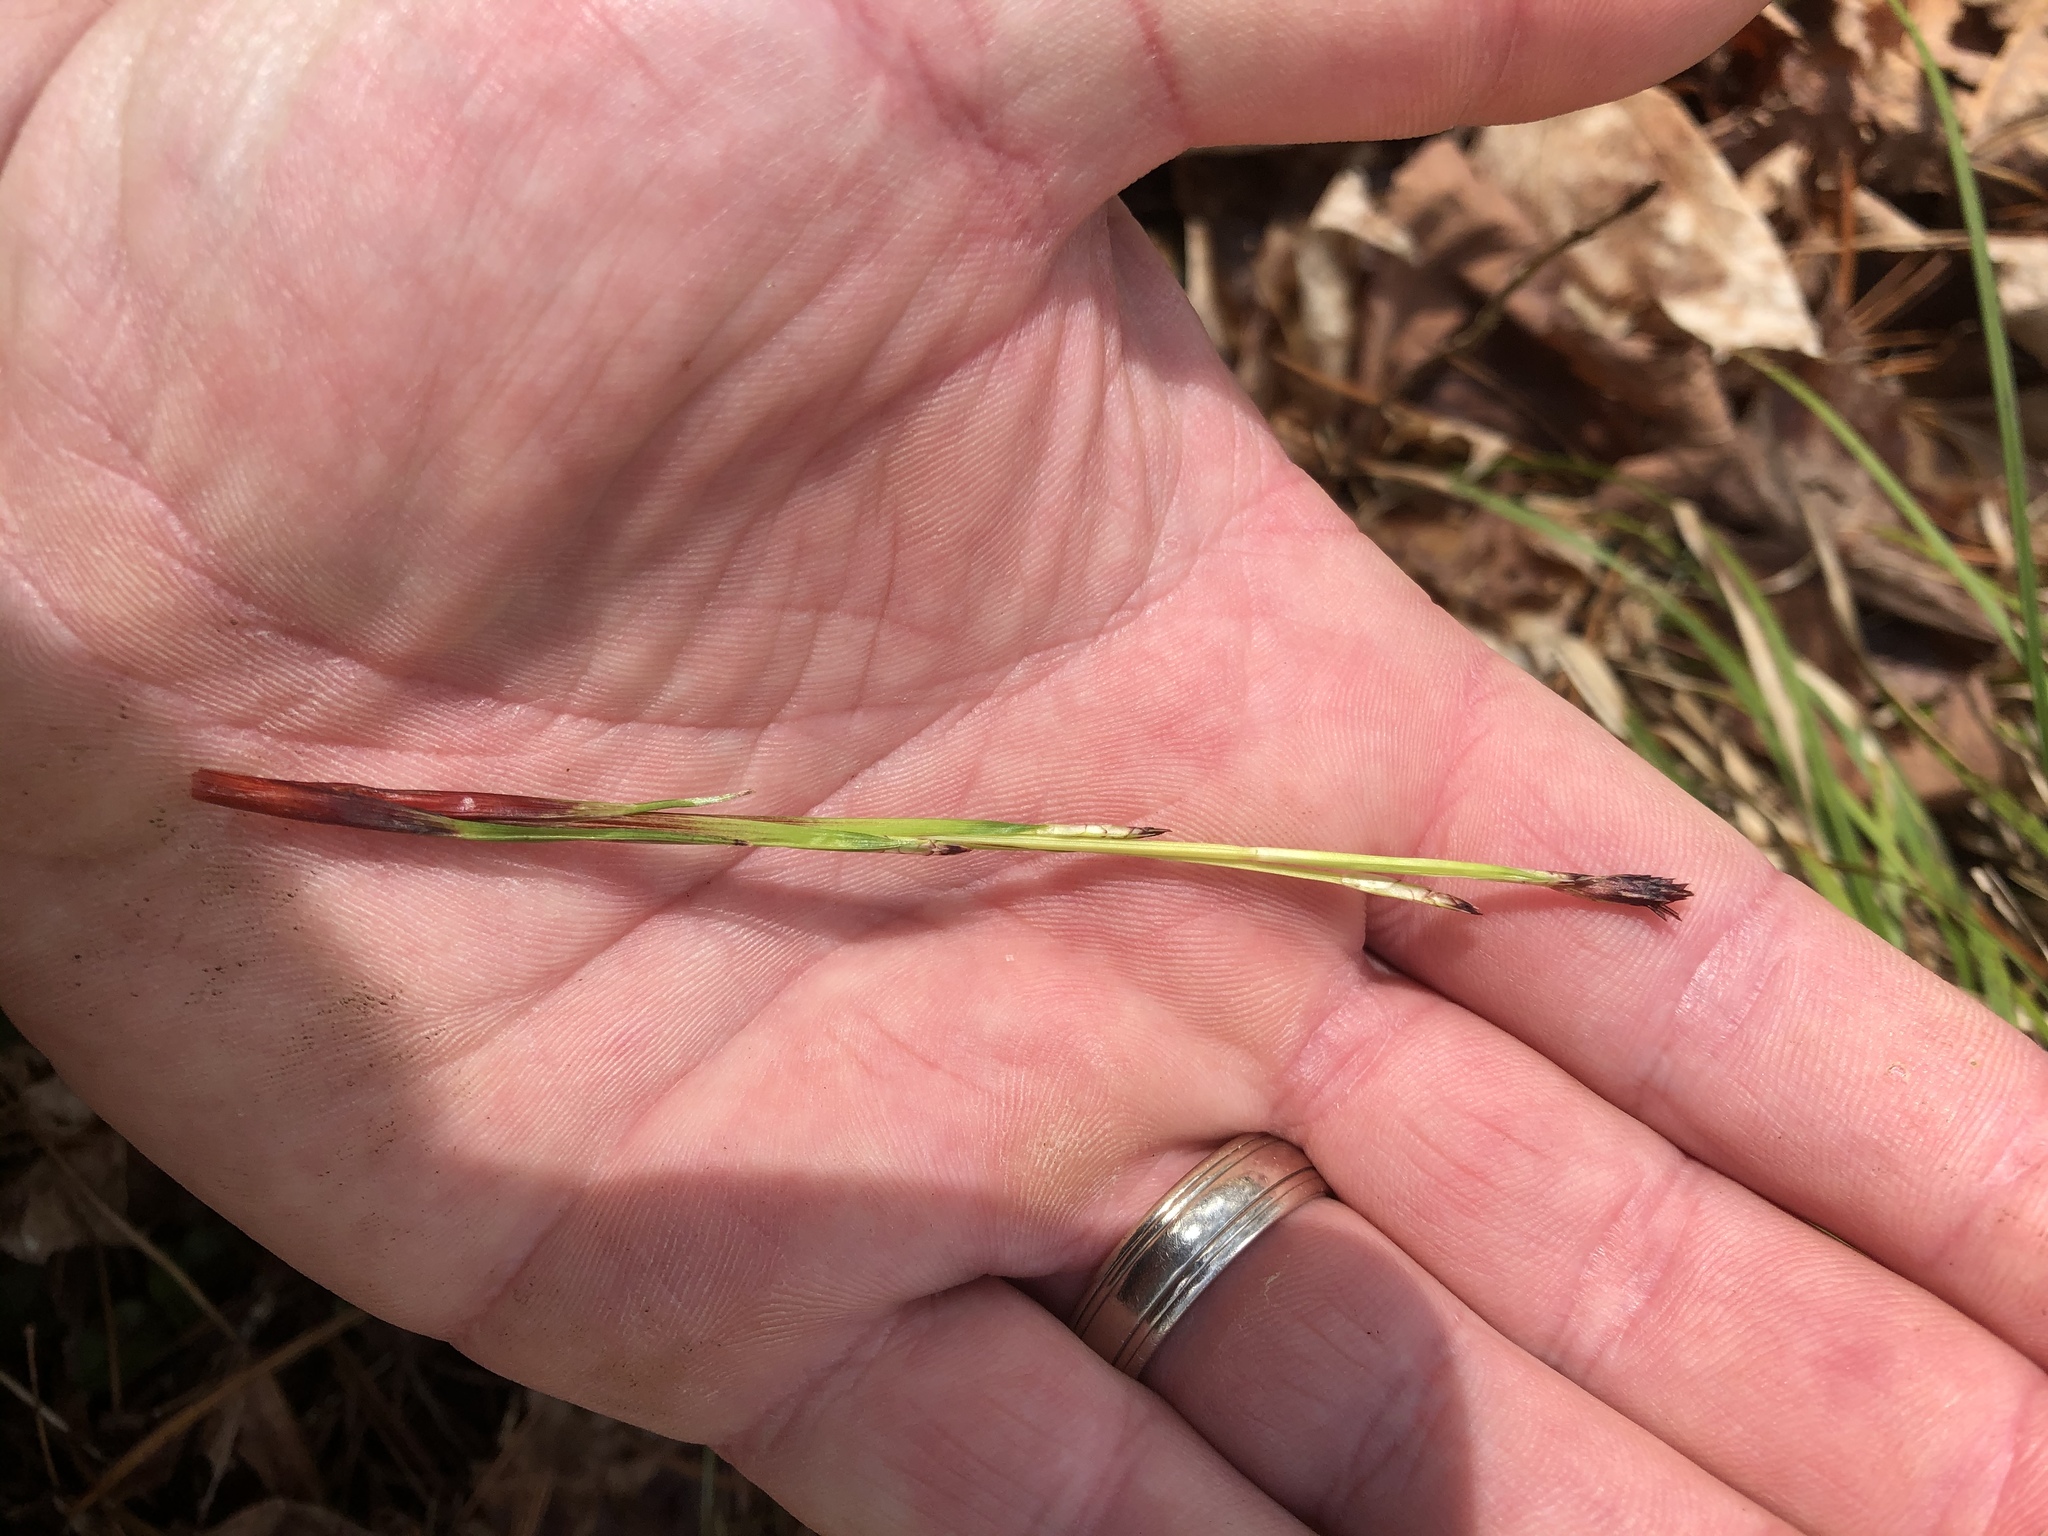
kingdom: Plantae
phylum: Tracheophyta
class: Liliopsida
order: Poales
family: Cyperaceae
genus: Carex
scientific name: Carex pedunculata
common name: Pedunculate sedge
